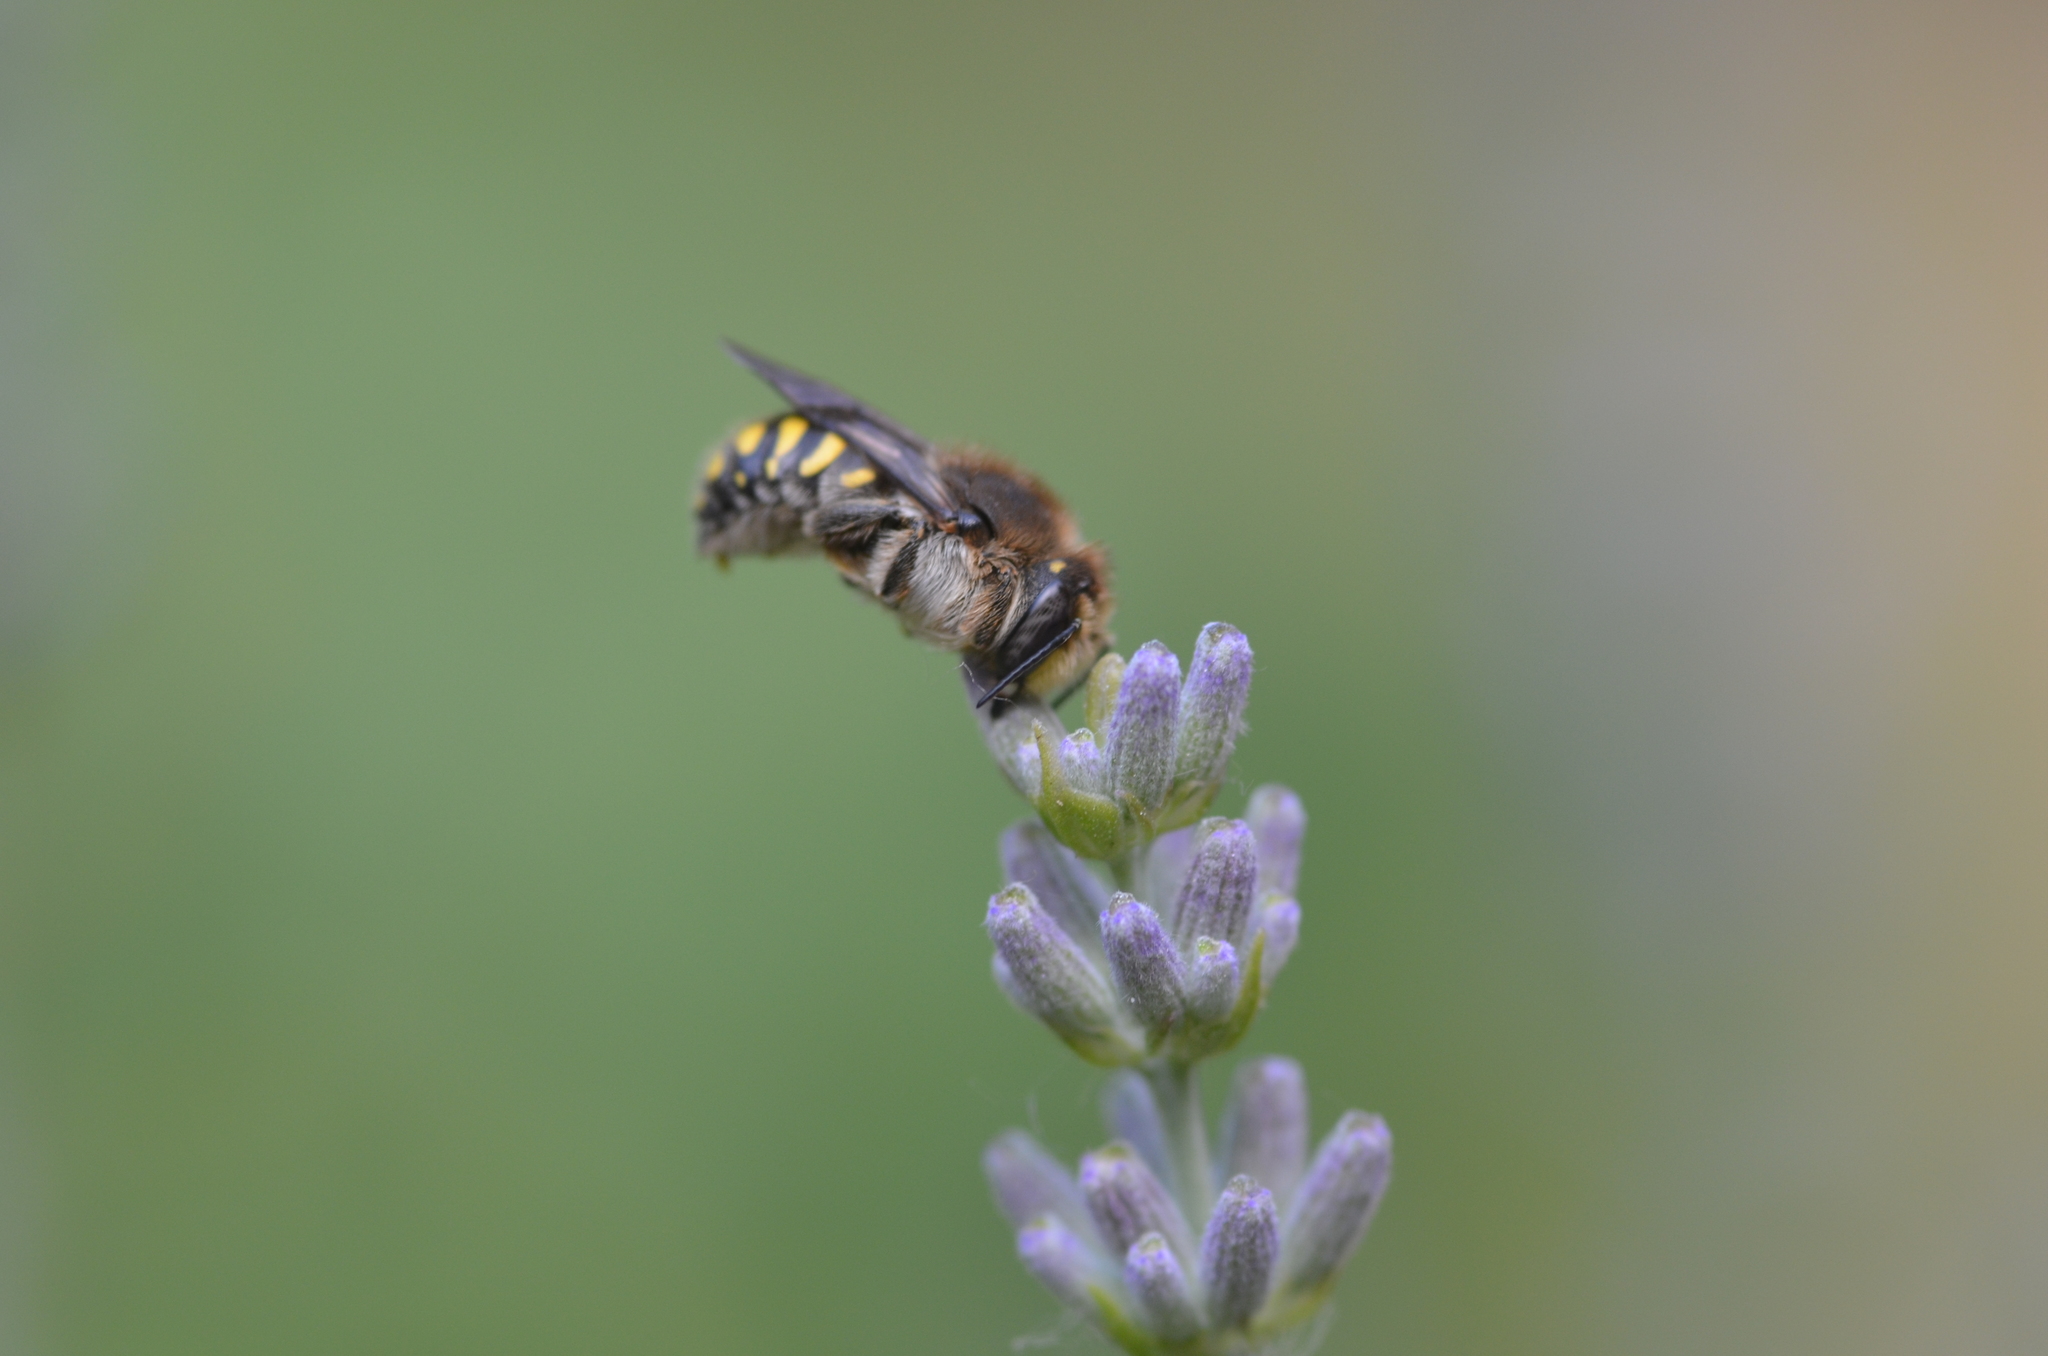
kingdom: Animalia
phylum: Arthropoda
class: Insecta
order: Hymenoptera
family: Megachilidae
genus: Anthidium
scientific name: Anthidium septemspinosum
